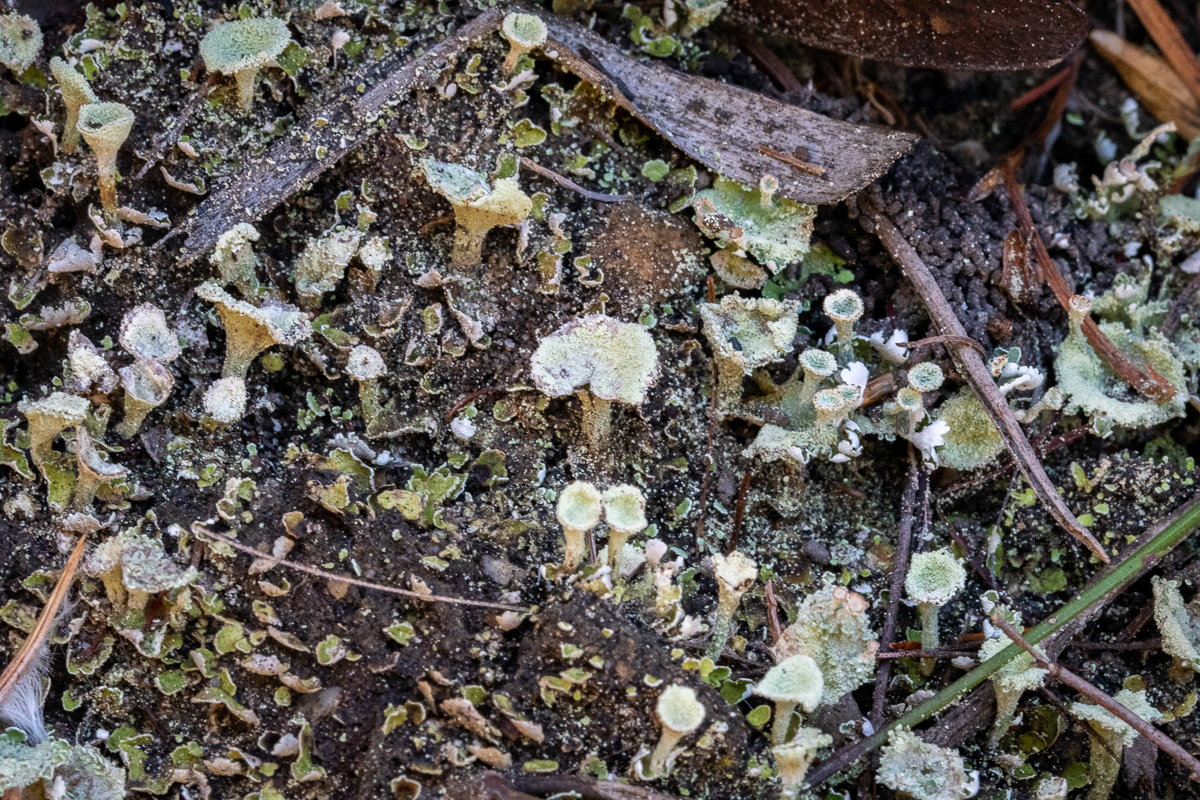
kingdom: Fungi
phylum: Ascomycota
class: Lecanoromycetes
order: Lecanorales
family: Cladoniaceae
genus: Cladonia
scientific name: Cladonia pyxidata
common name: Pebbled pixie cup
